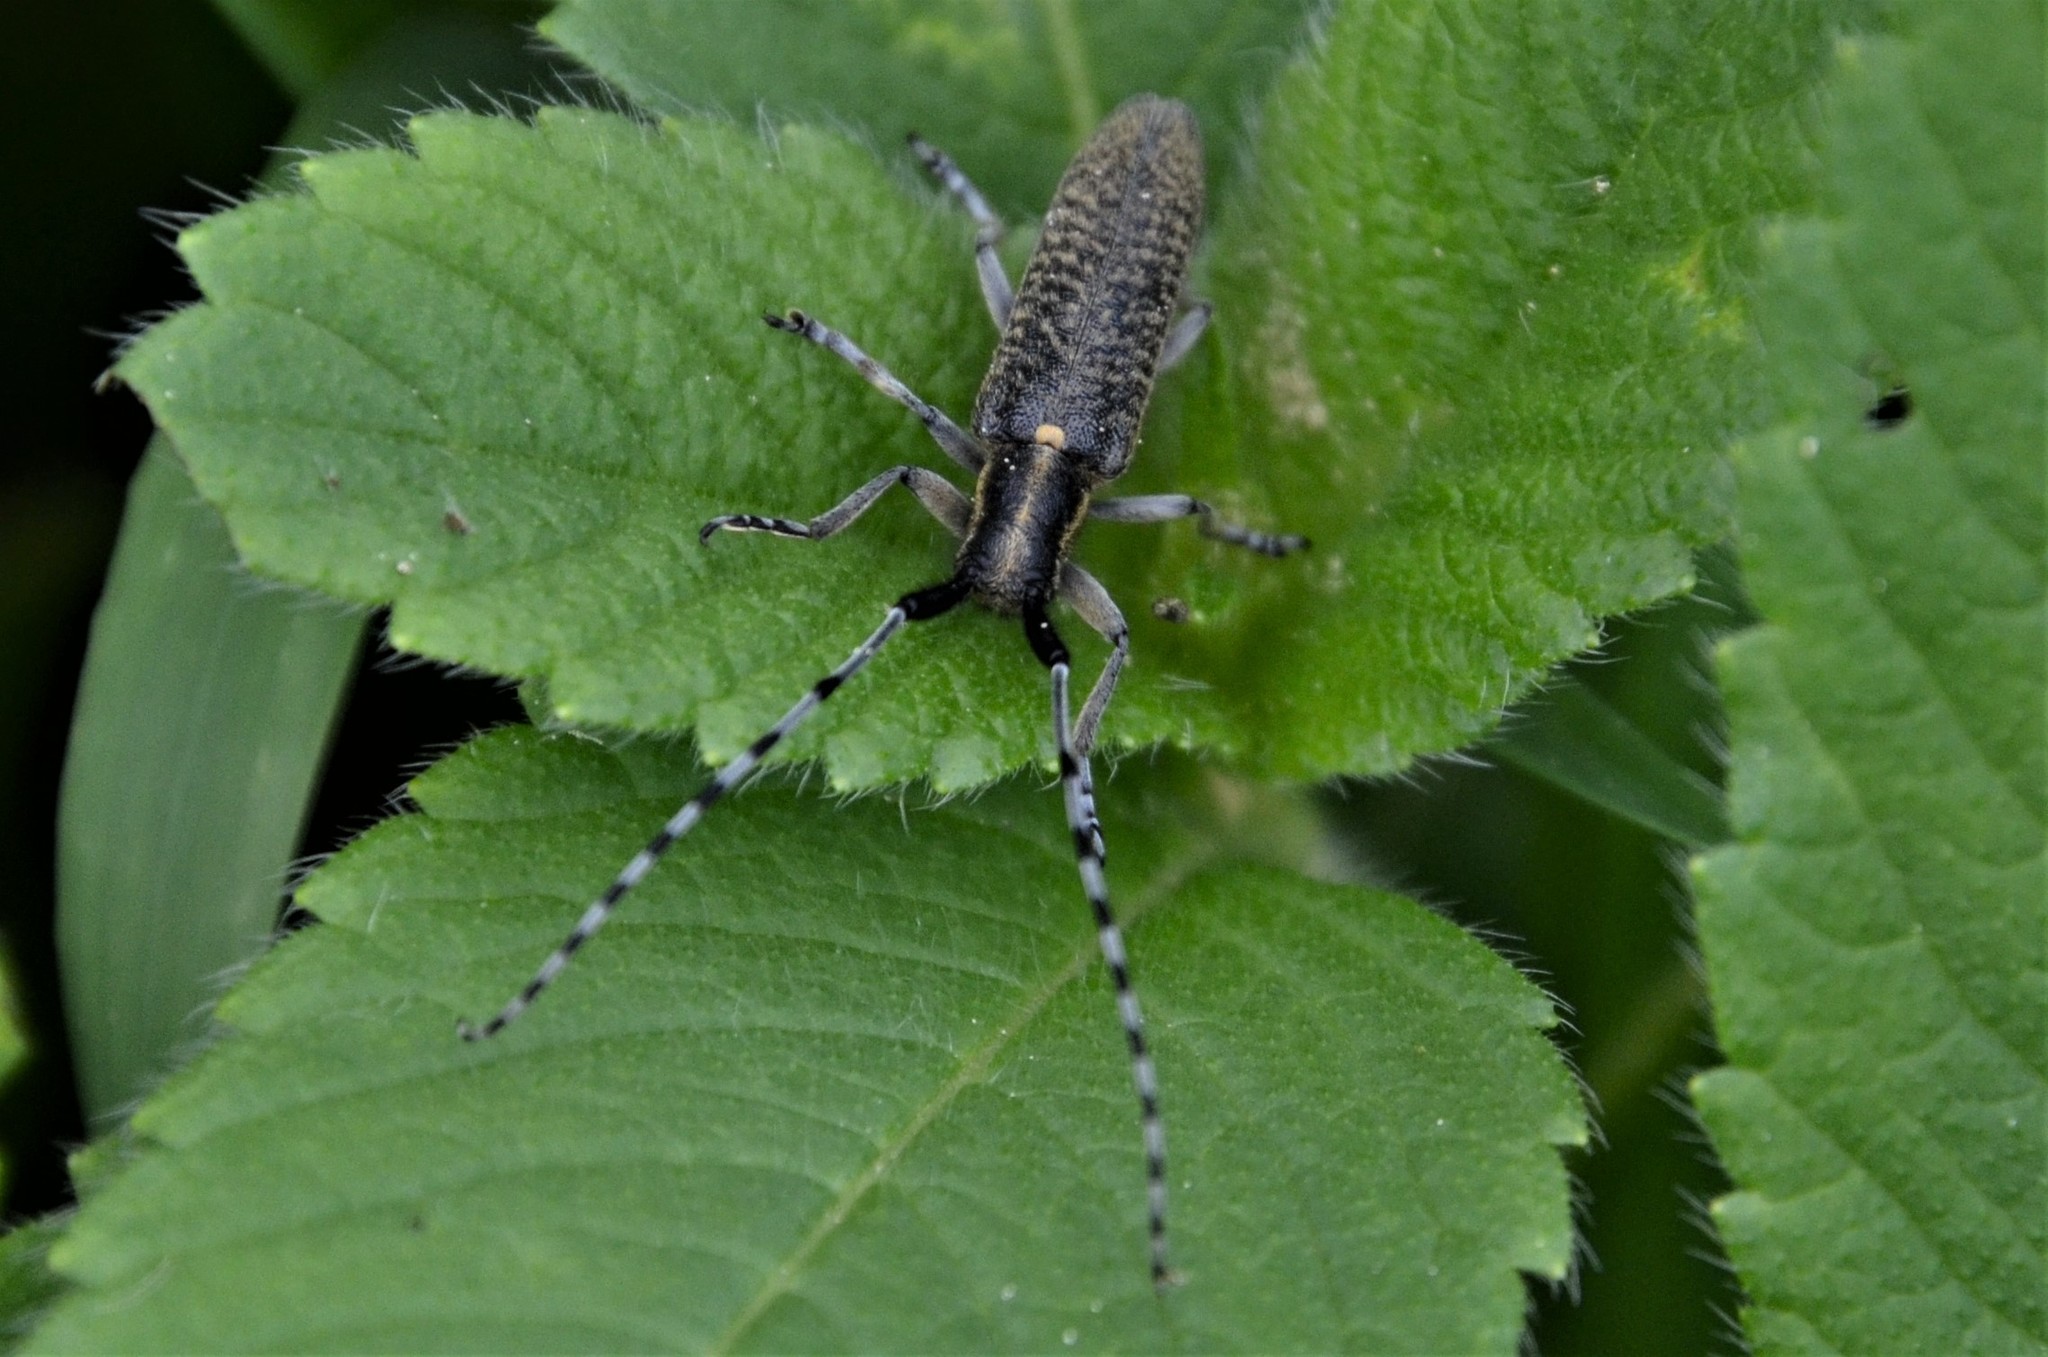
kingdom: Animalia
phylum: Arthropoda
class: Insecta
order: Coleoptera
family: Cerambycidae
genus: Agapanthia
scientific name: Agapanthia villosoviridescens
